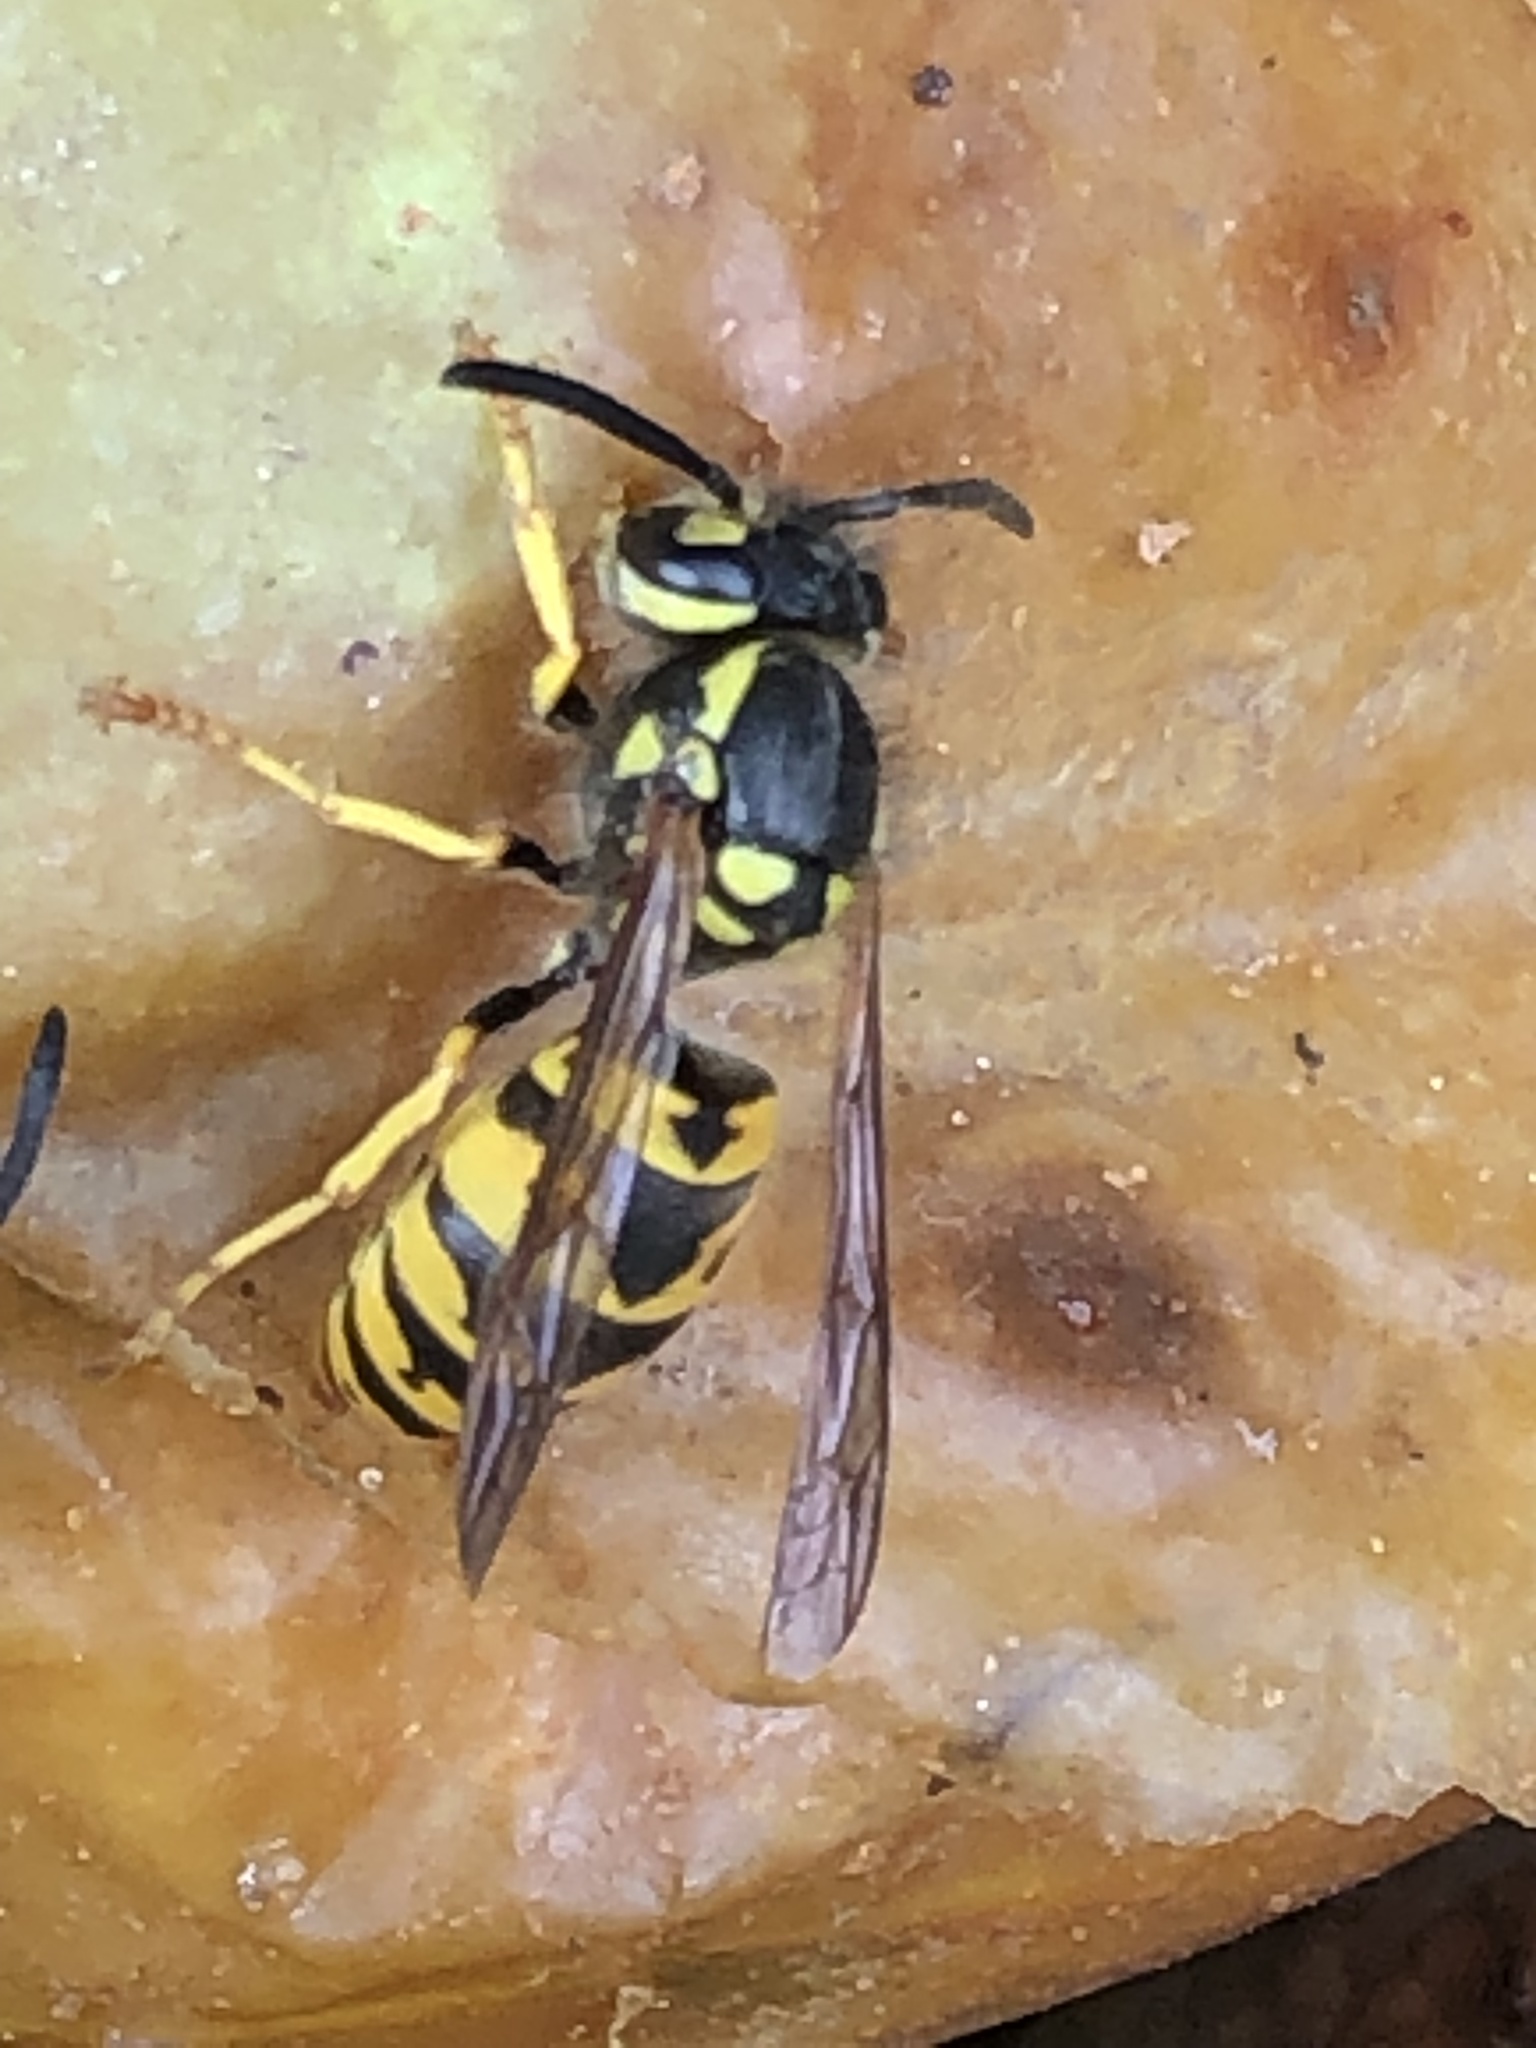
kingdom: Animalia
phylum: Arthropoda
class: Insecta
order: Hymenoptera
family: Vespidae
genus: Vespula
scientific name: Vespula germanica
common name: German wasp
